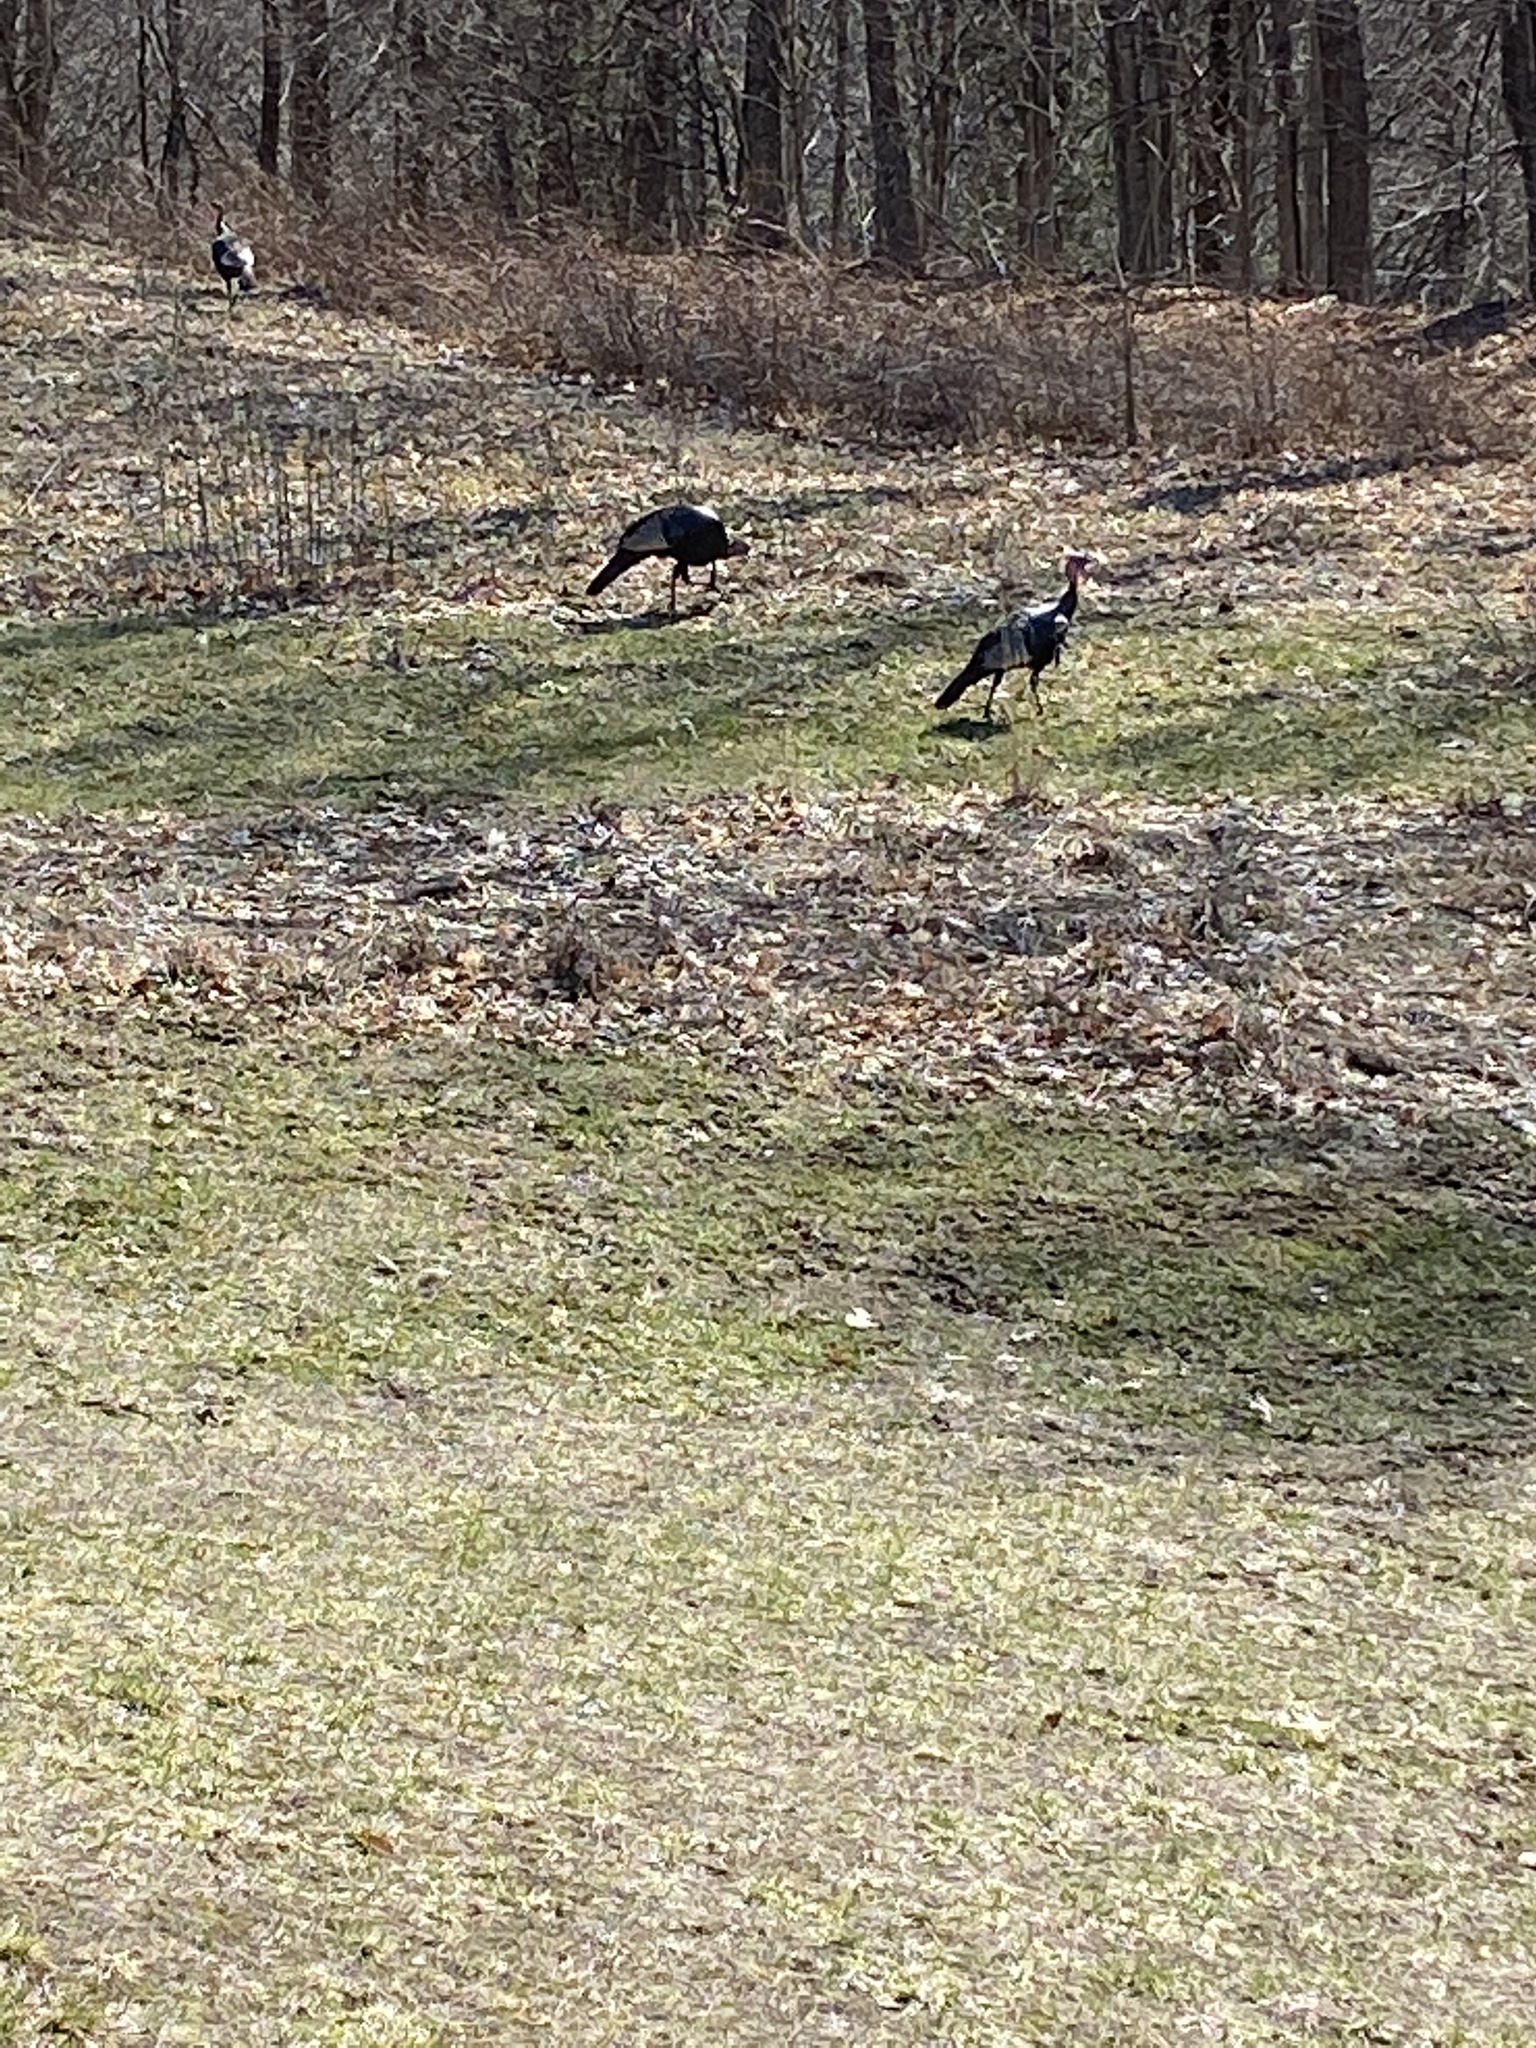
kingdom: Animalia
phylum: Chordata
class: Aves
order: Galliformes
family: Phasianidae
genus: Meleagris
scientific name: Meleagris gallopavo
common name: Wild turkey
